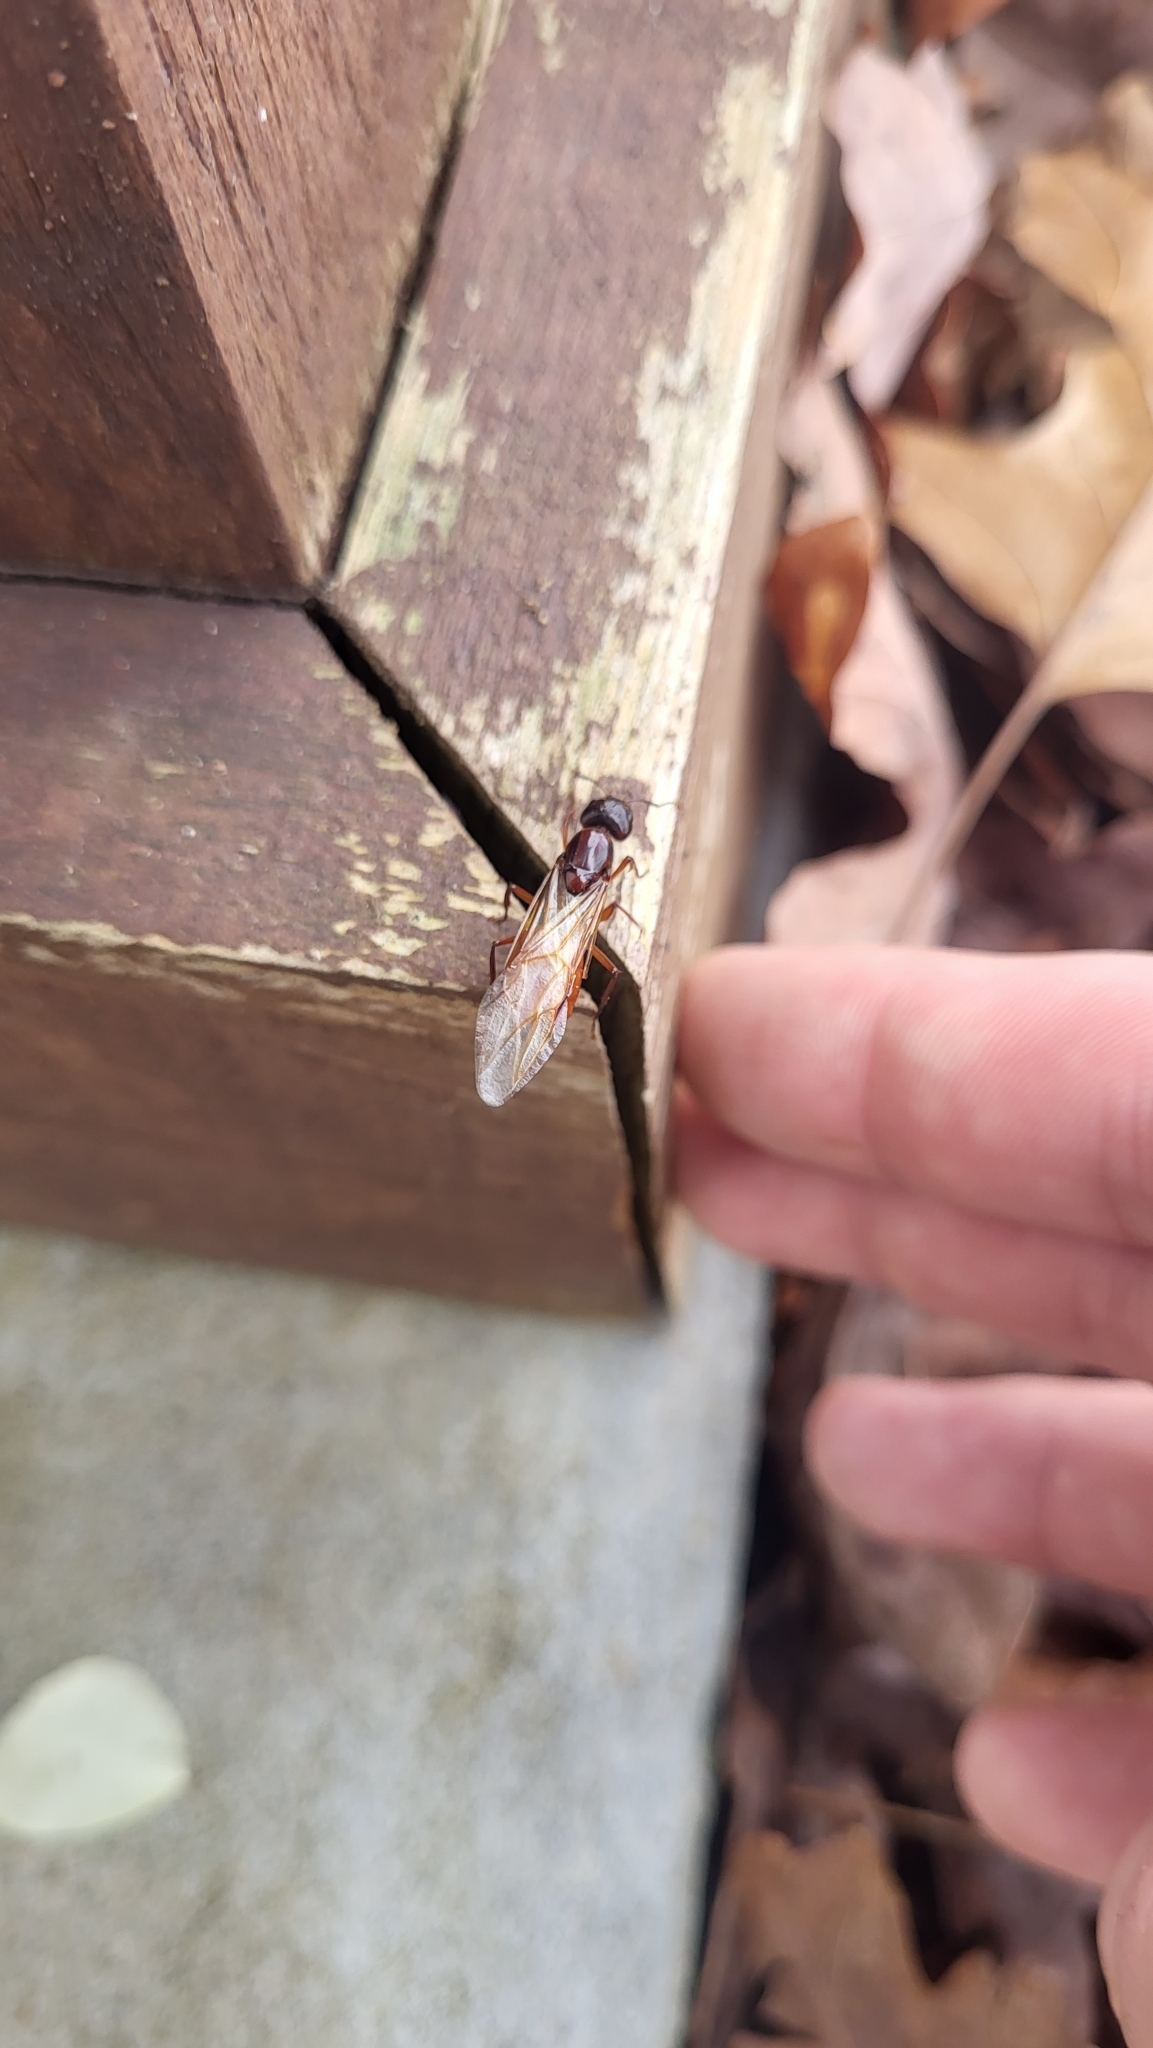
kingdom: Animalia
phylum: Arthropoda
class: Insecta
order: Hymenoptera
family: Formicidae
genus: Camponotus
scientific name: Camponotus americanus
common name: American carpenter ant
